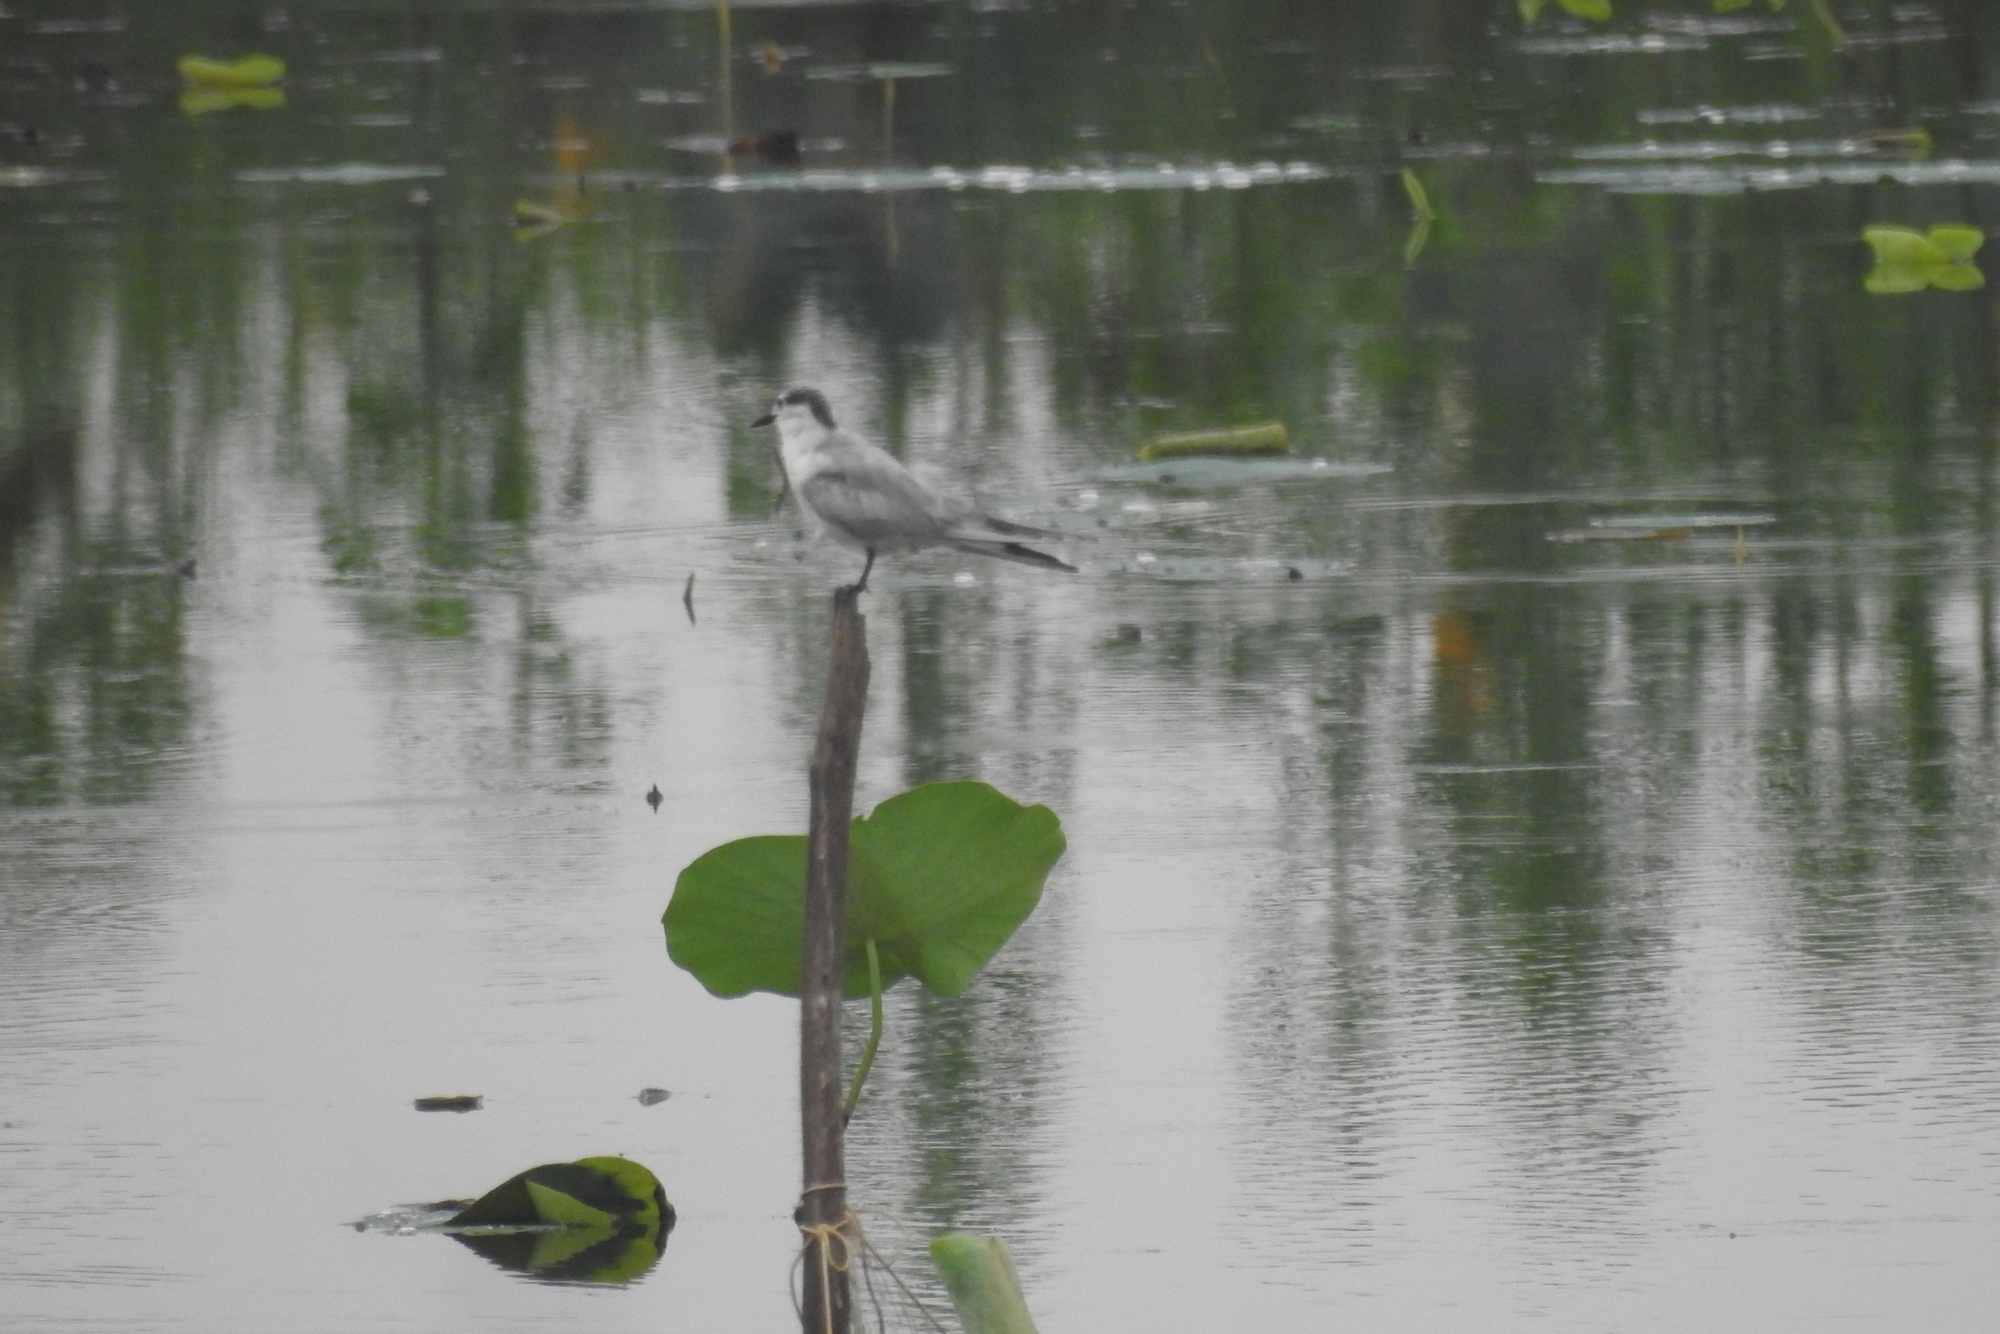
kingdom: Animalia
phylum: Chordata
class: Aves
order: Charadriiformes
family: Laridae
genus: Chlidonias
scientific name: Chlidonias hybrida
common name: Whiskered tern
